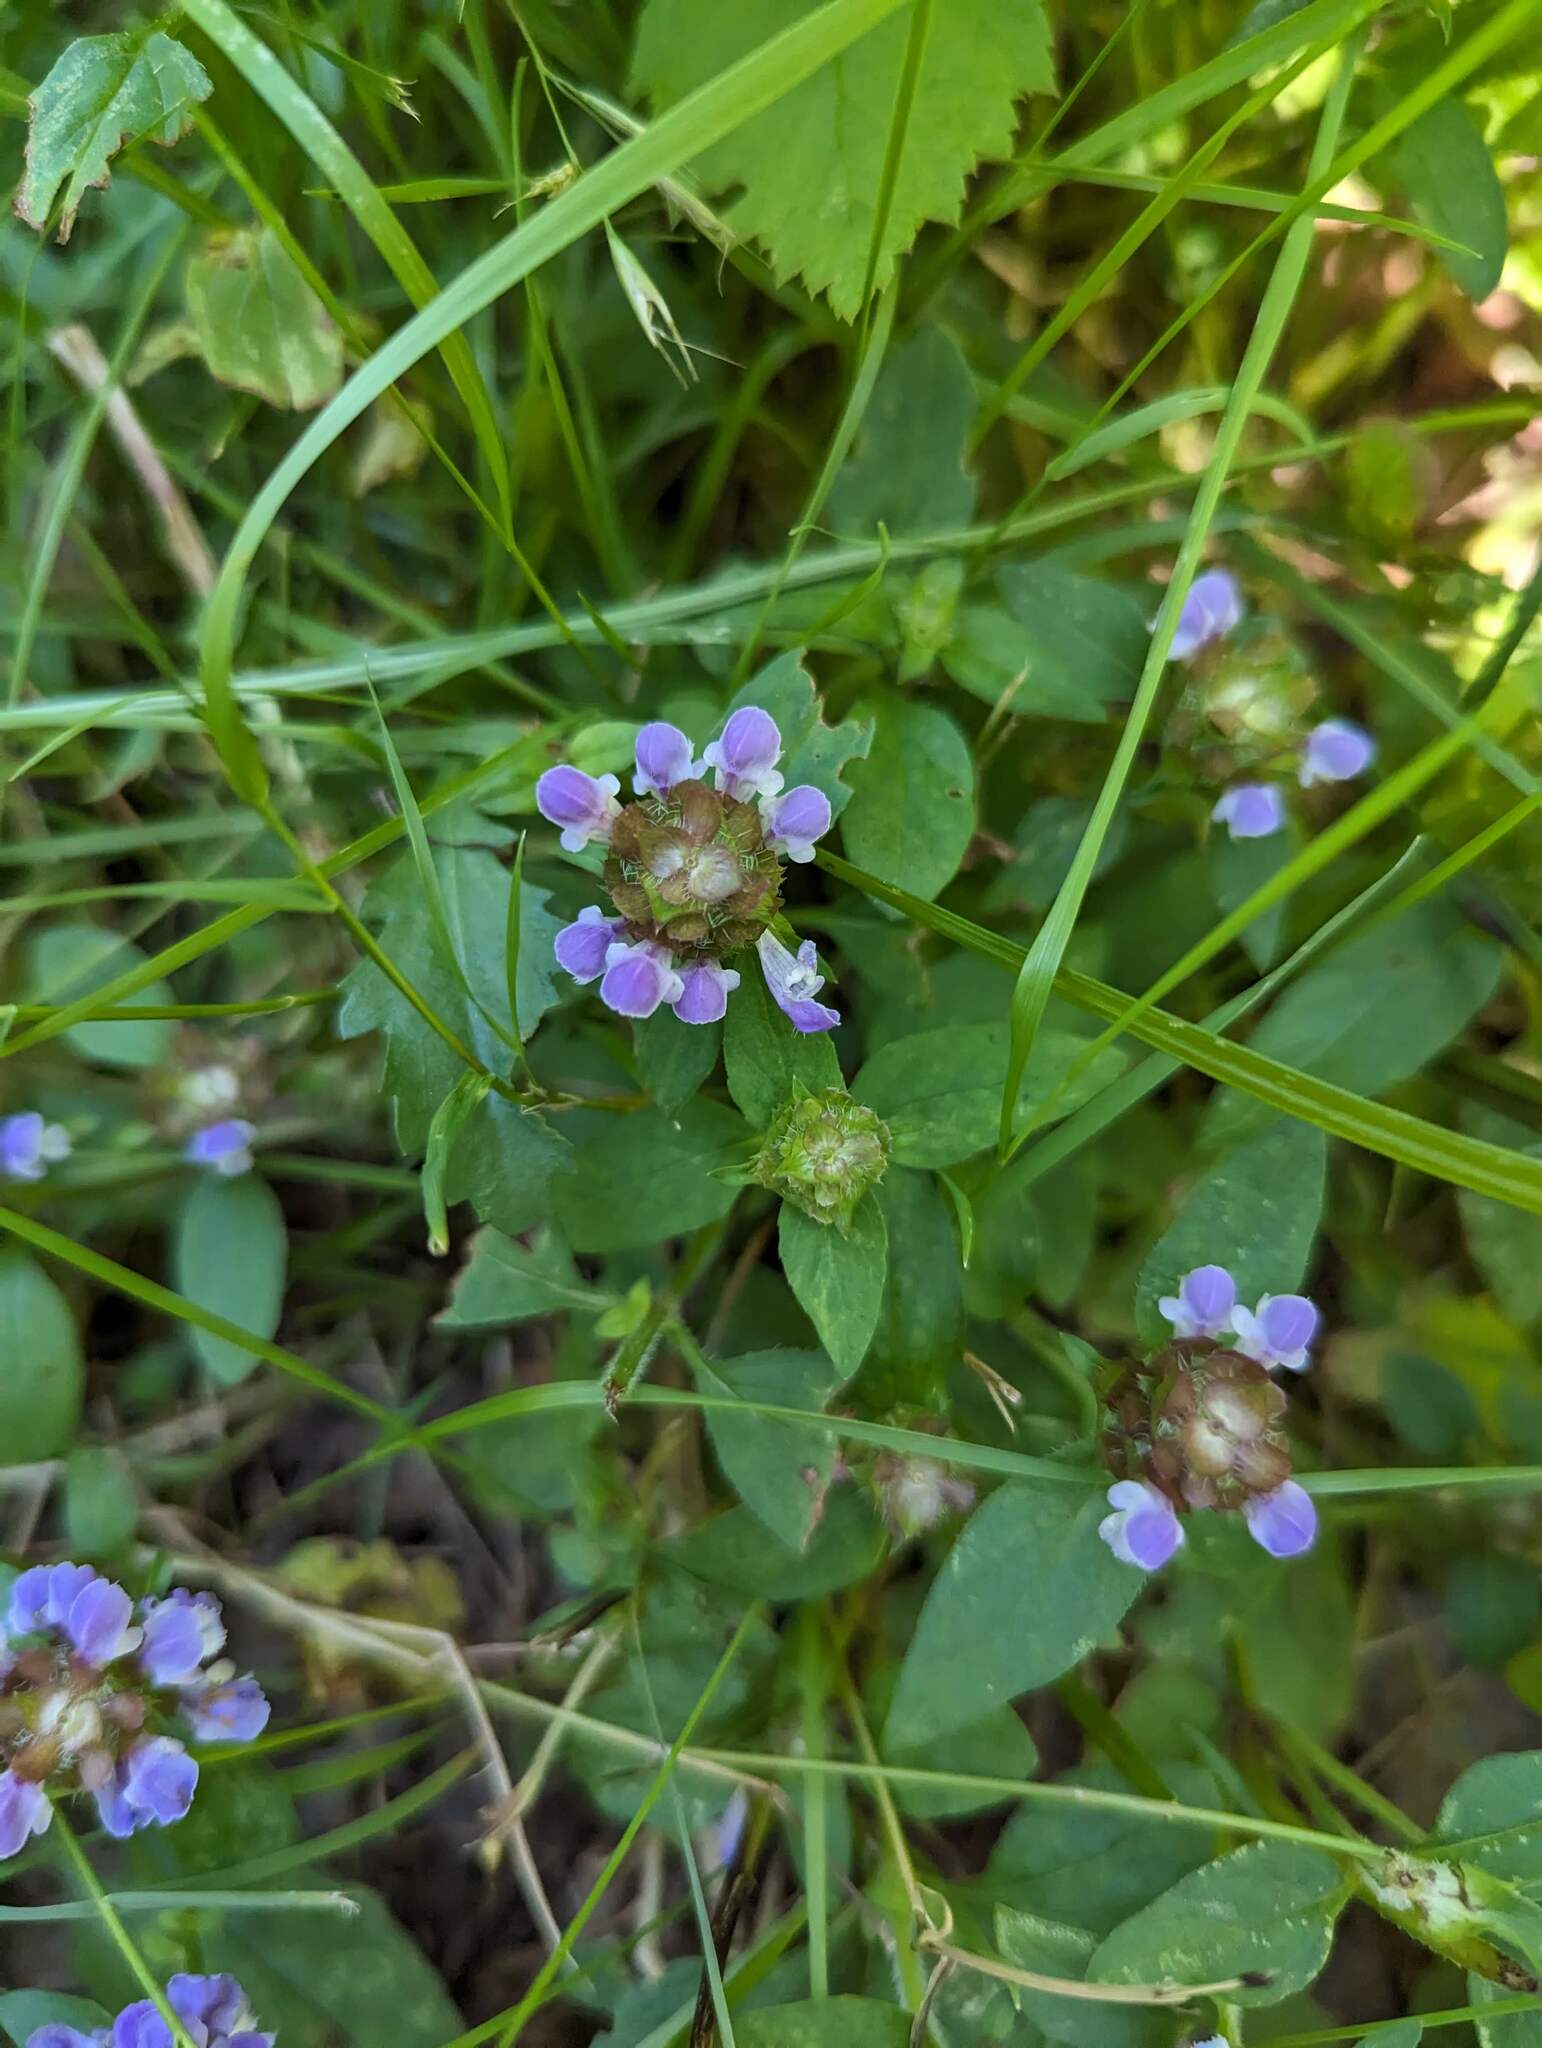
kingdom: Plantae
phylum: Tracheophyta
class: Magnoliopsida
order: Lamiales
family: Lamiaceae
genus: Prunella
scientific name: Prunella vulgaris
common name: Heal-all
